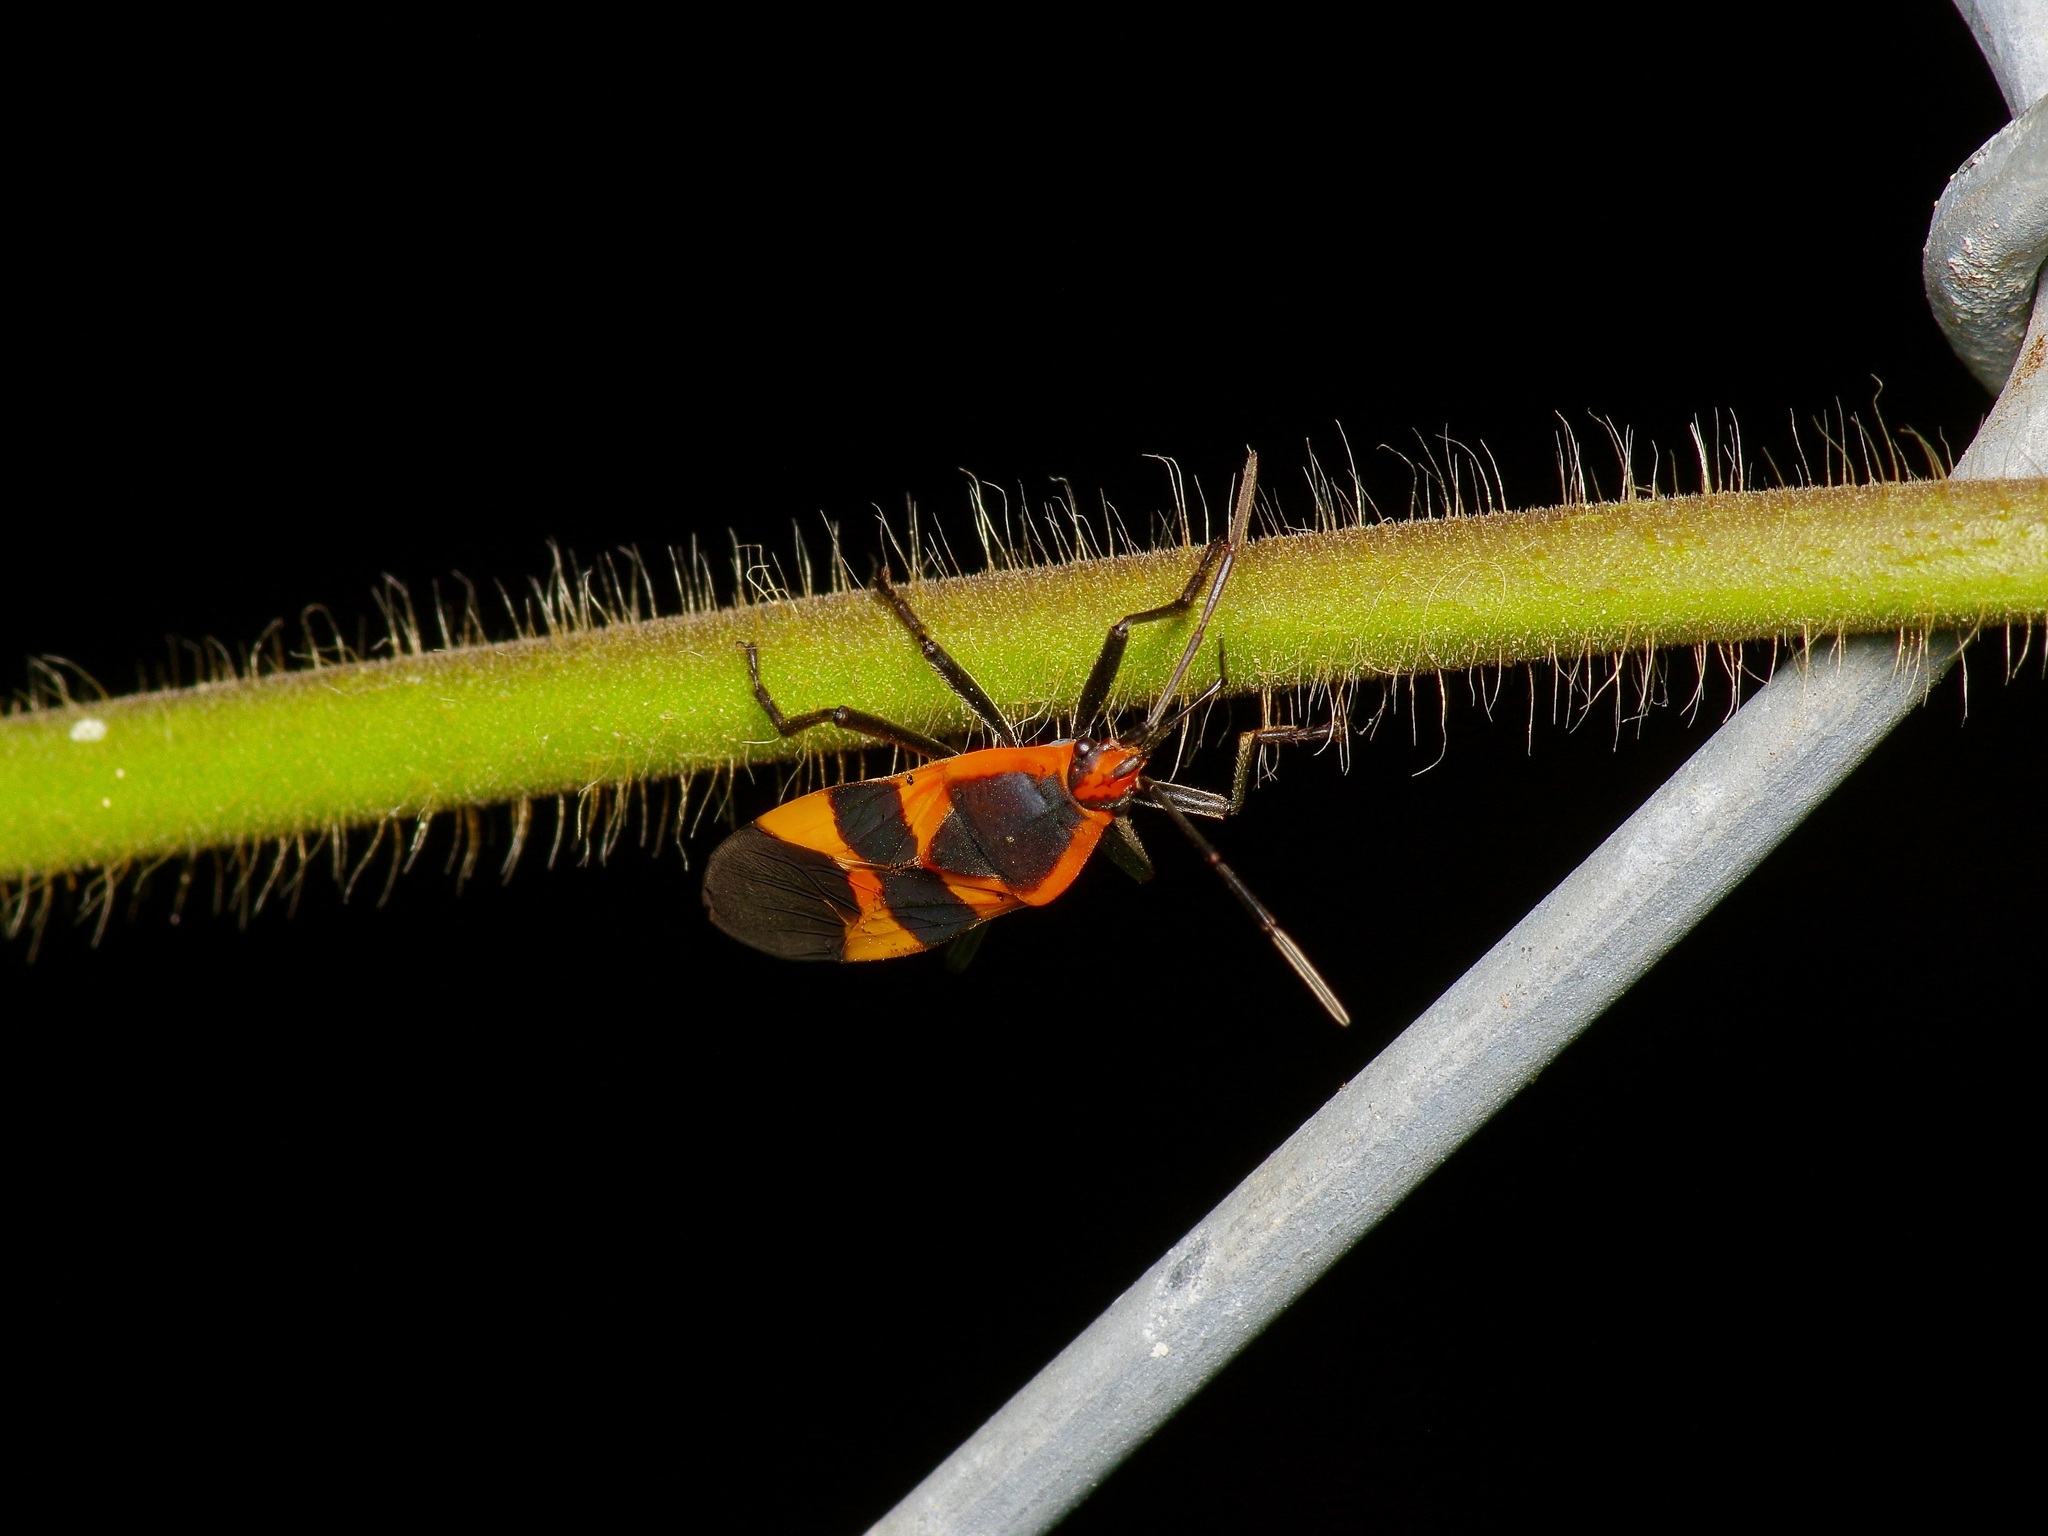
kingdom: Animalia
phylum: Arthropoda
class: Insecta
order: Hemiptera
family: Lygaeidae
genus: Oncopeltus
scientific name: Oncopeltus fasciatus
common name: Large milkweed bug
